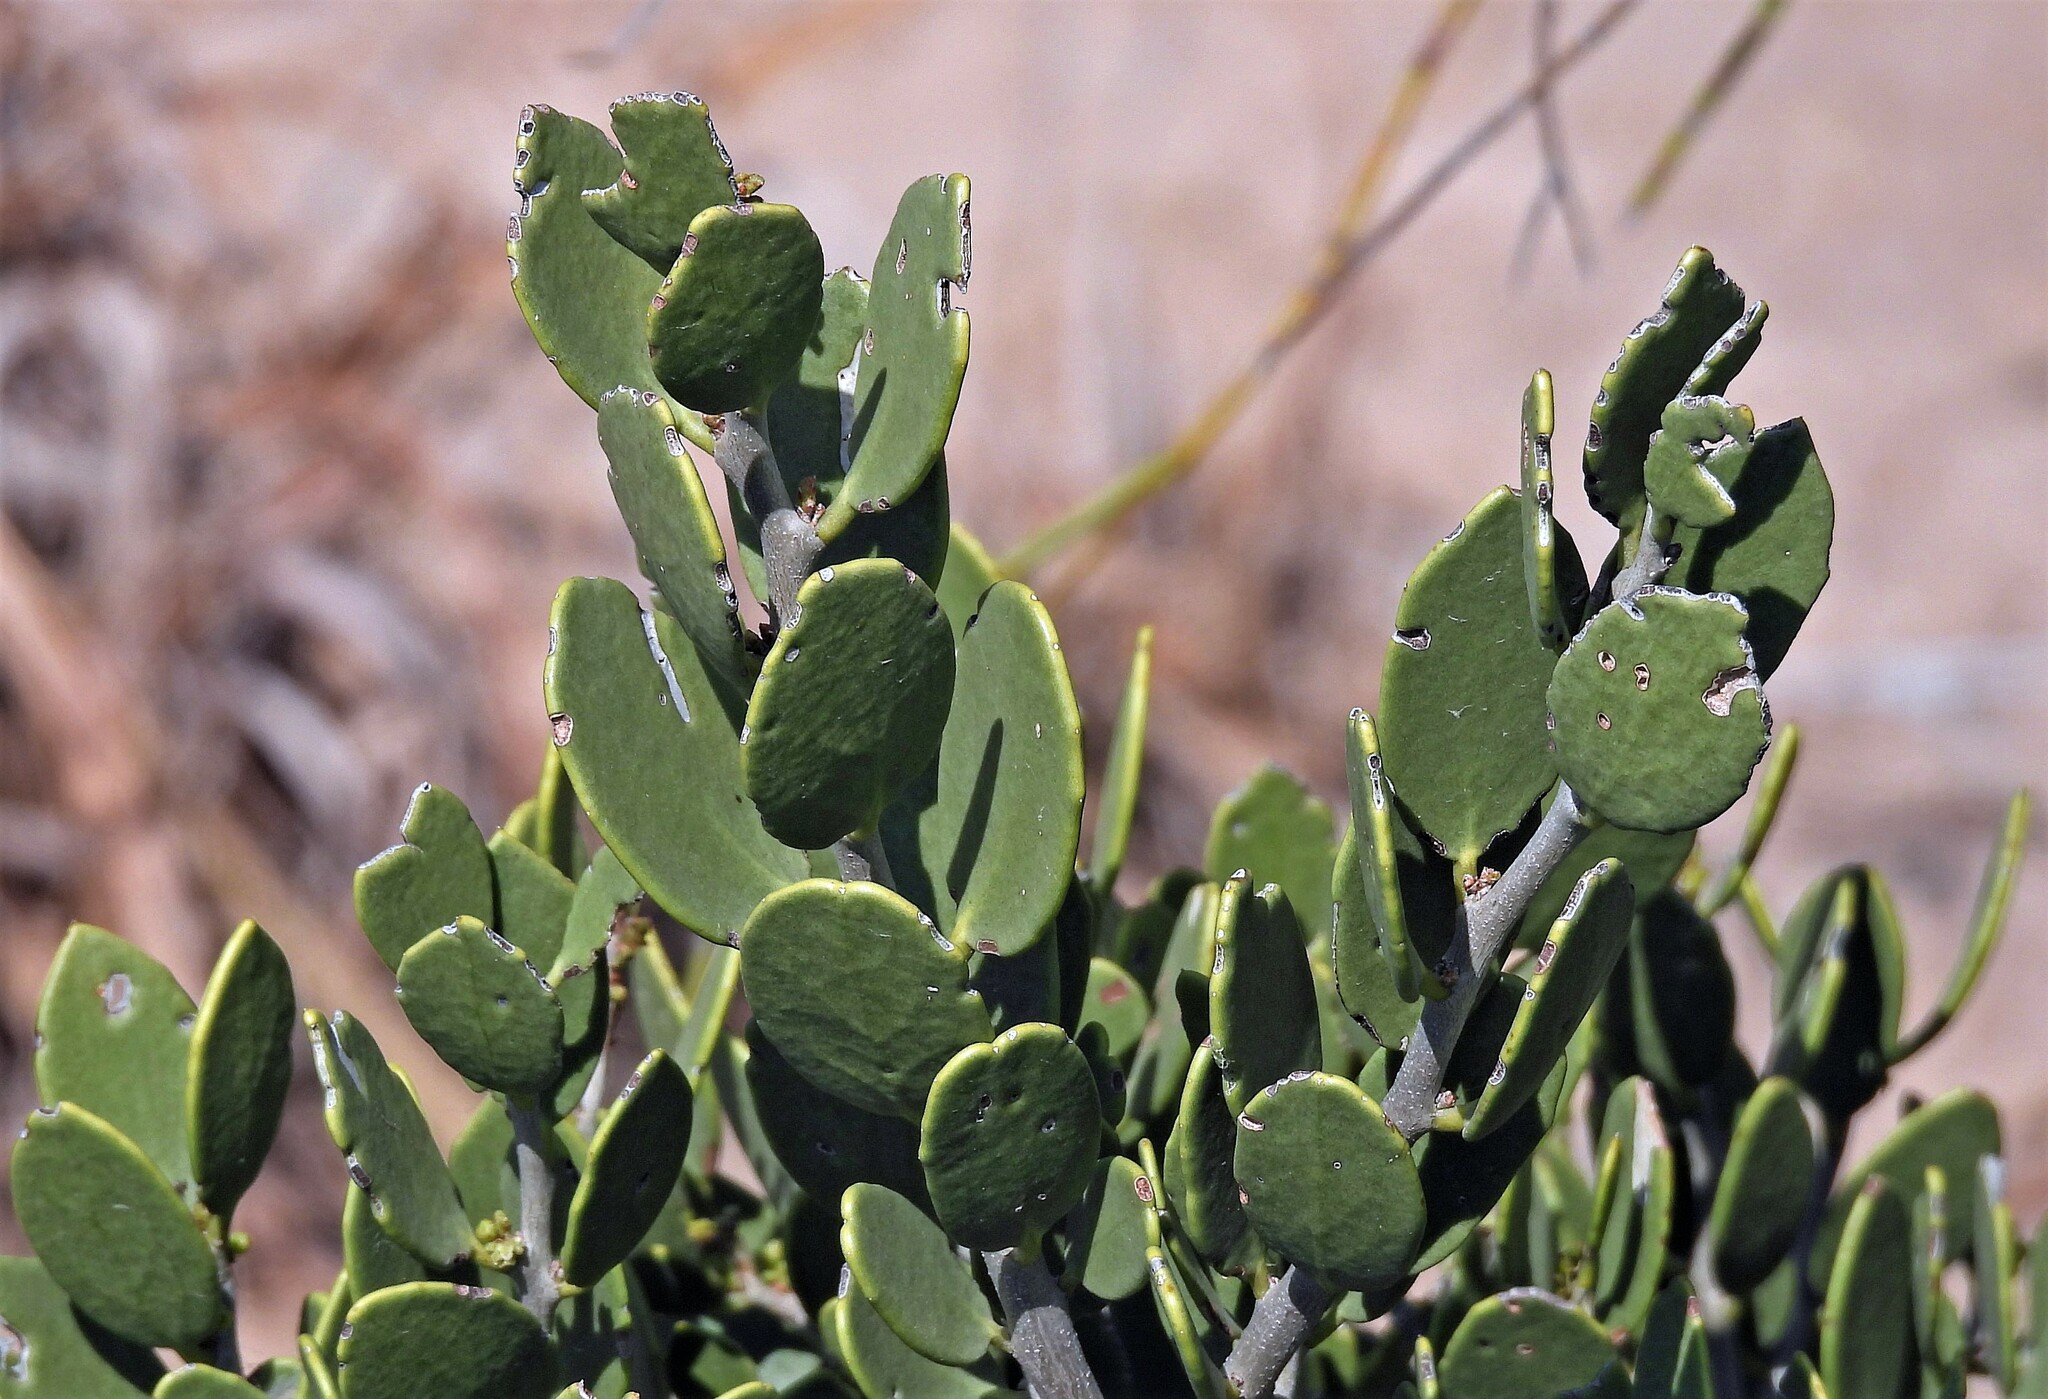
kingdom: Plantae
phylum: Tracheophyta
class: Magnoliopsida
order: Celastrales
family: Celastraceae
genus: Tricerma
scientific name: Tricerma vitis-idaeum
